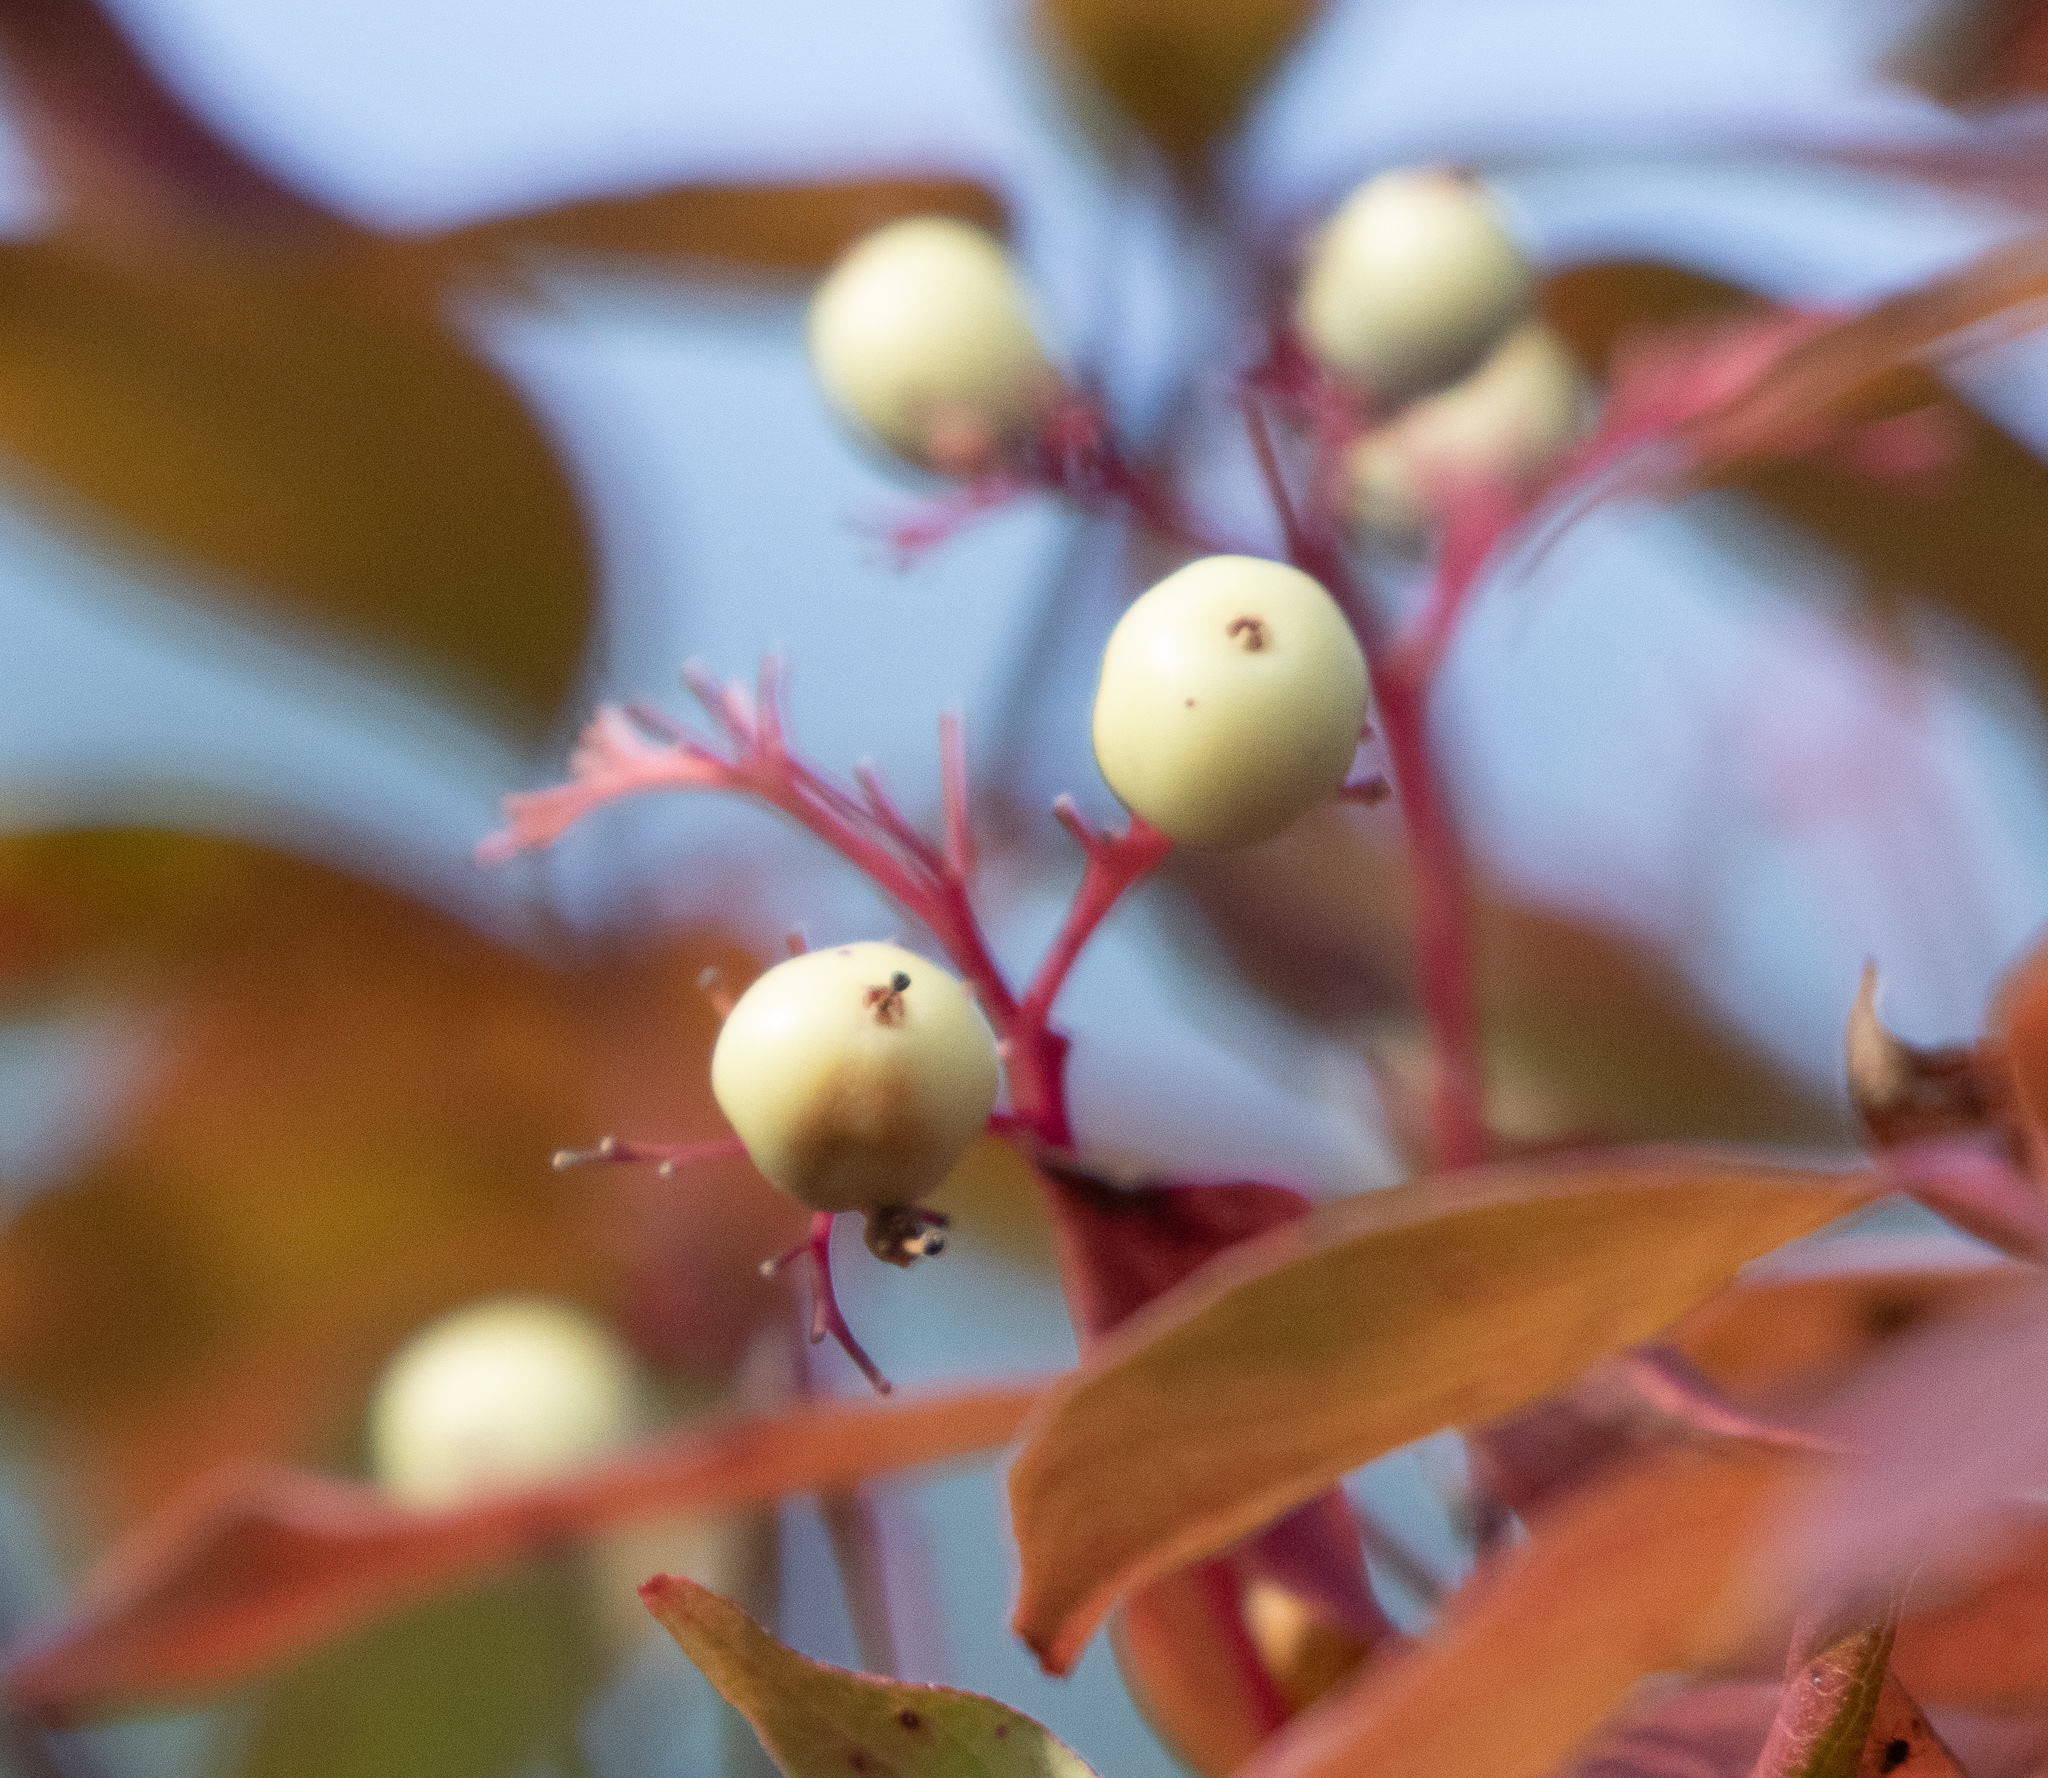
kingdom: Plantae
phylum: Tracheophyta
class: Magnoliopsida
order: Cornales
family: Cornaceae
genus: Cornus
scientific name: Cornus racemosa
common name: Panicled dogwood
